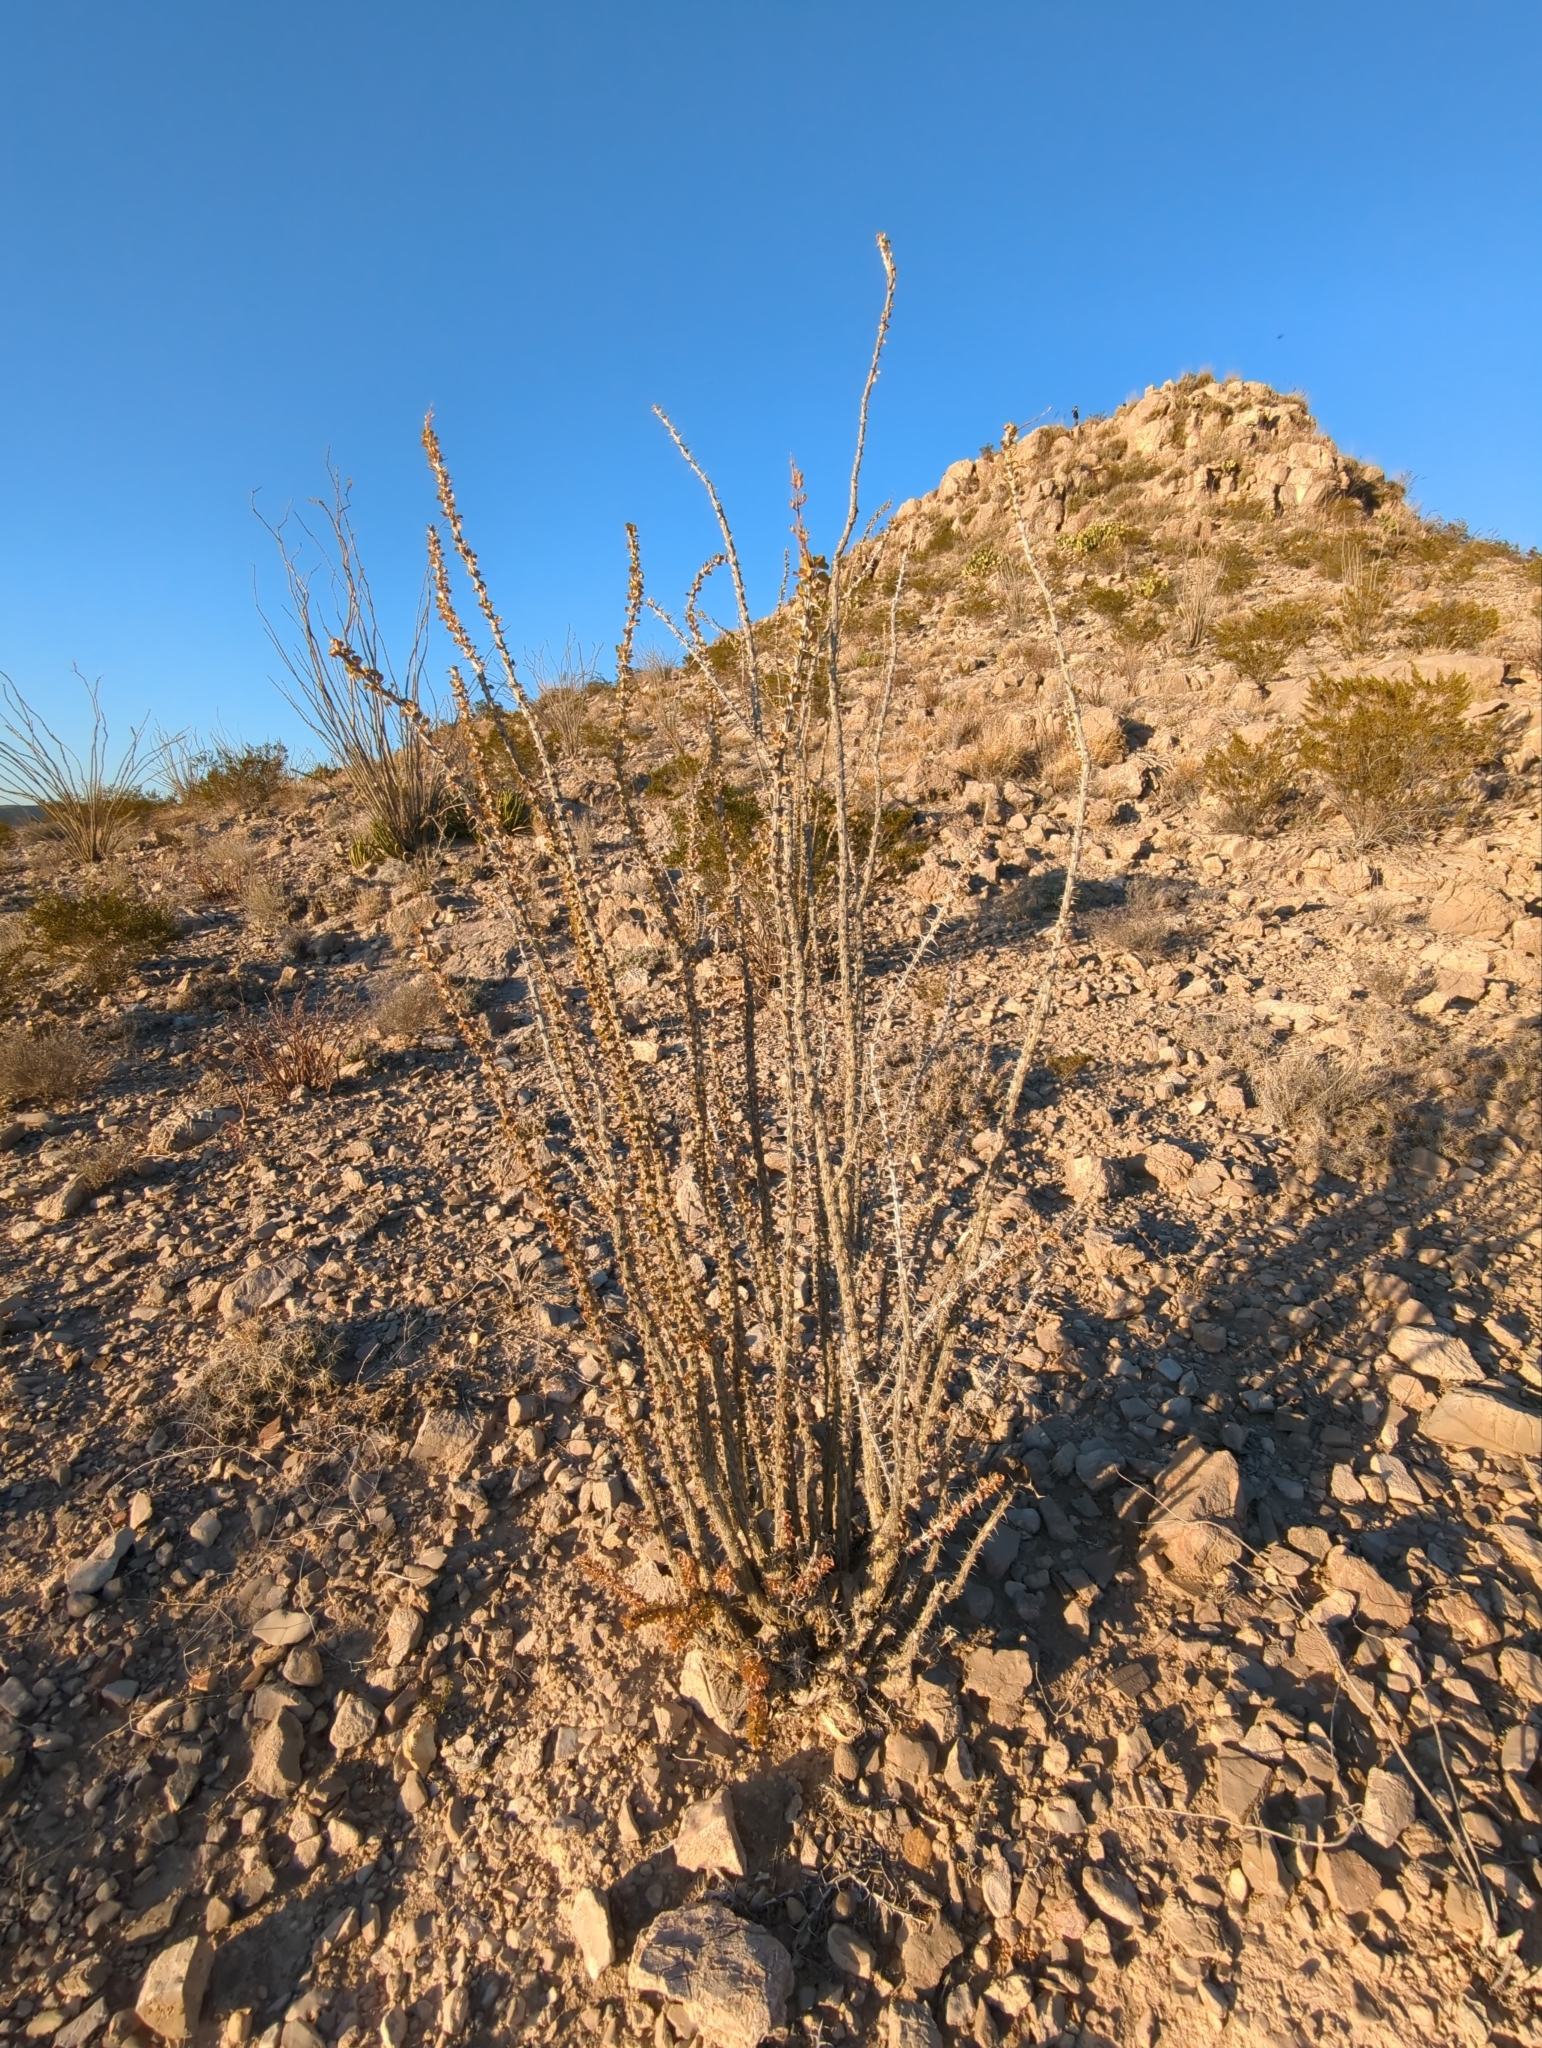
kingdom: Plantae
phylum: Tracheophyta
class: Magnoliopsida
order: Ericales
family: Fouquieriaceae
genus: Fouquieria
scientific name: Fouquieria splendens
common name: Vine-cactus
